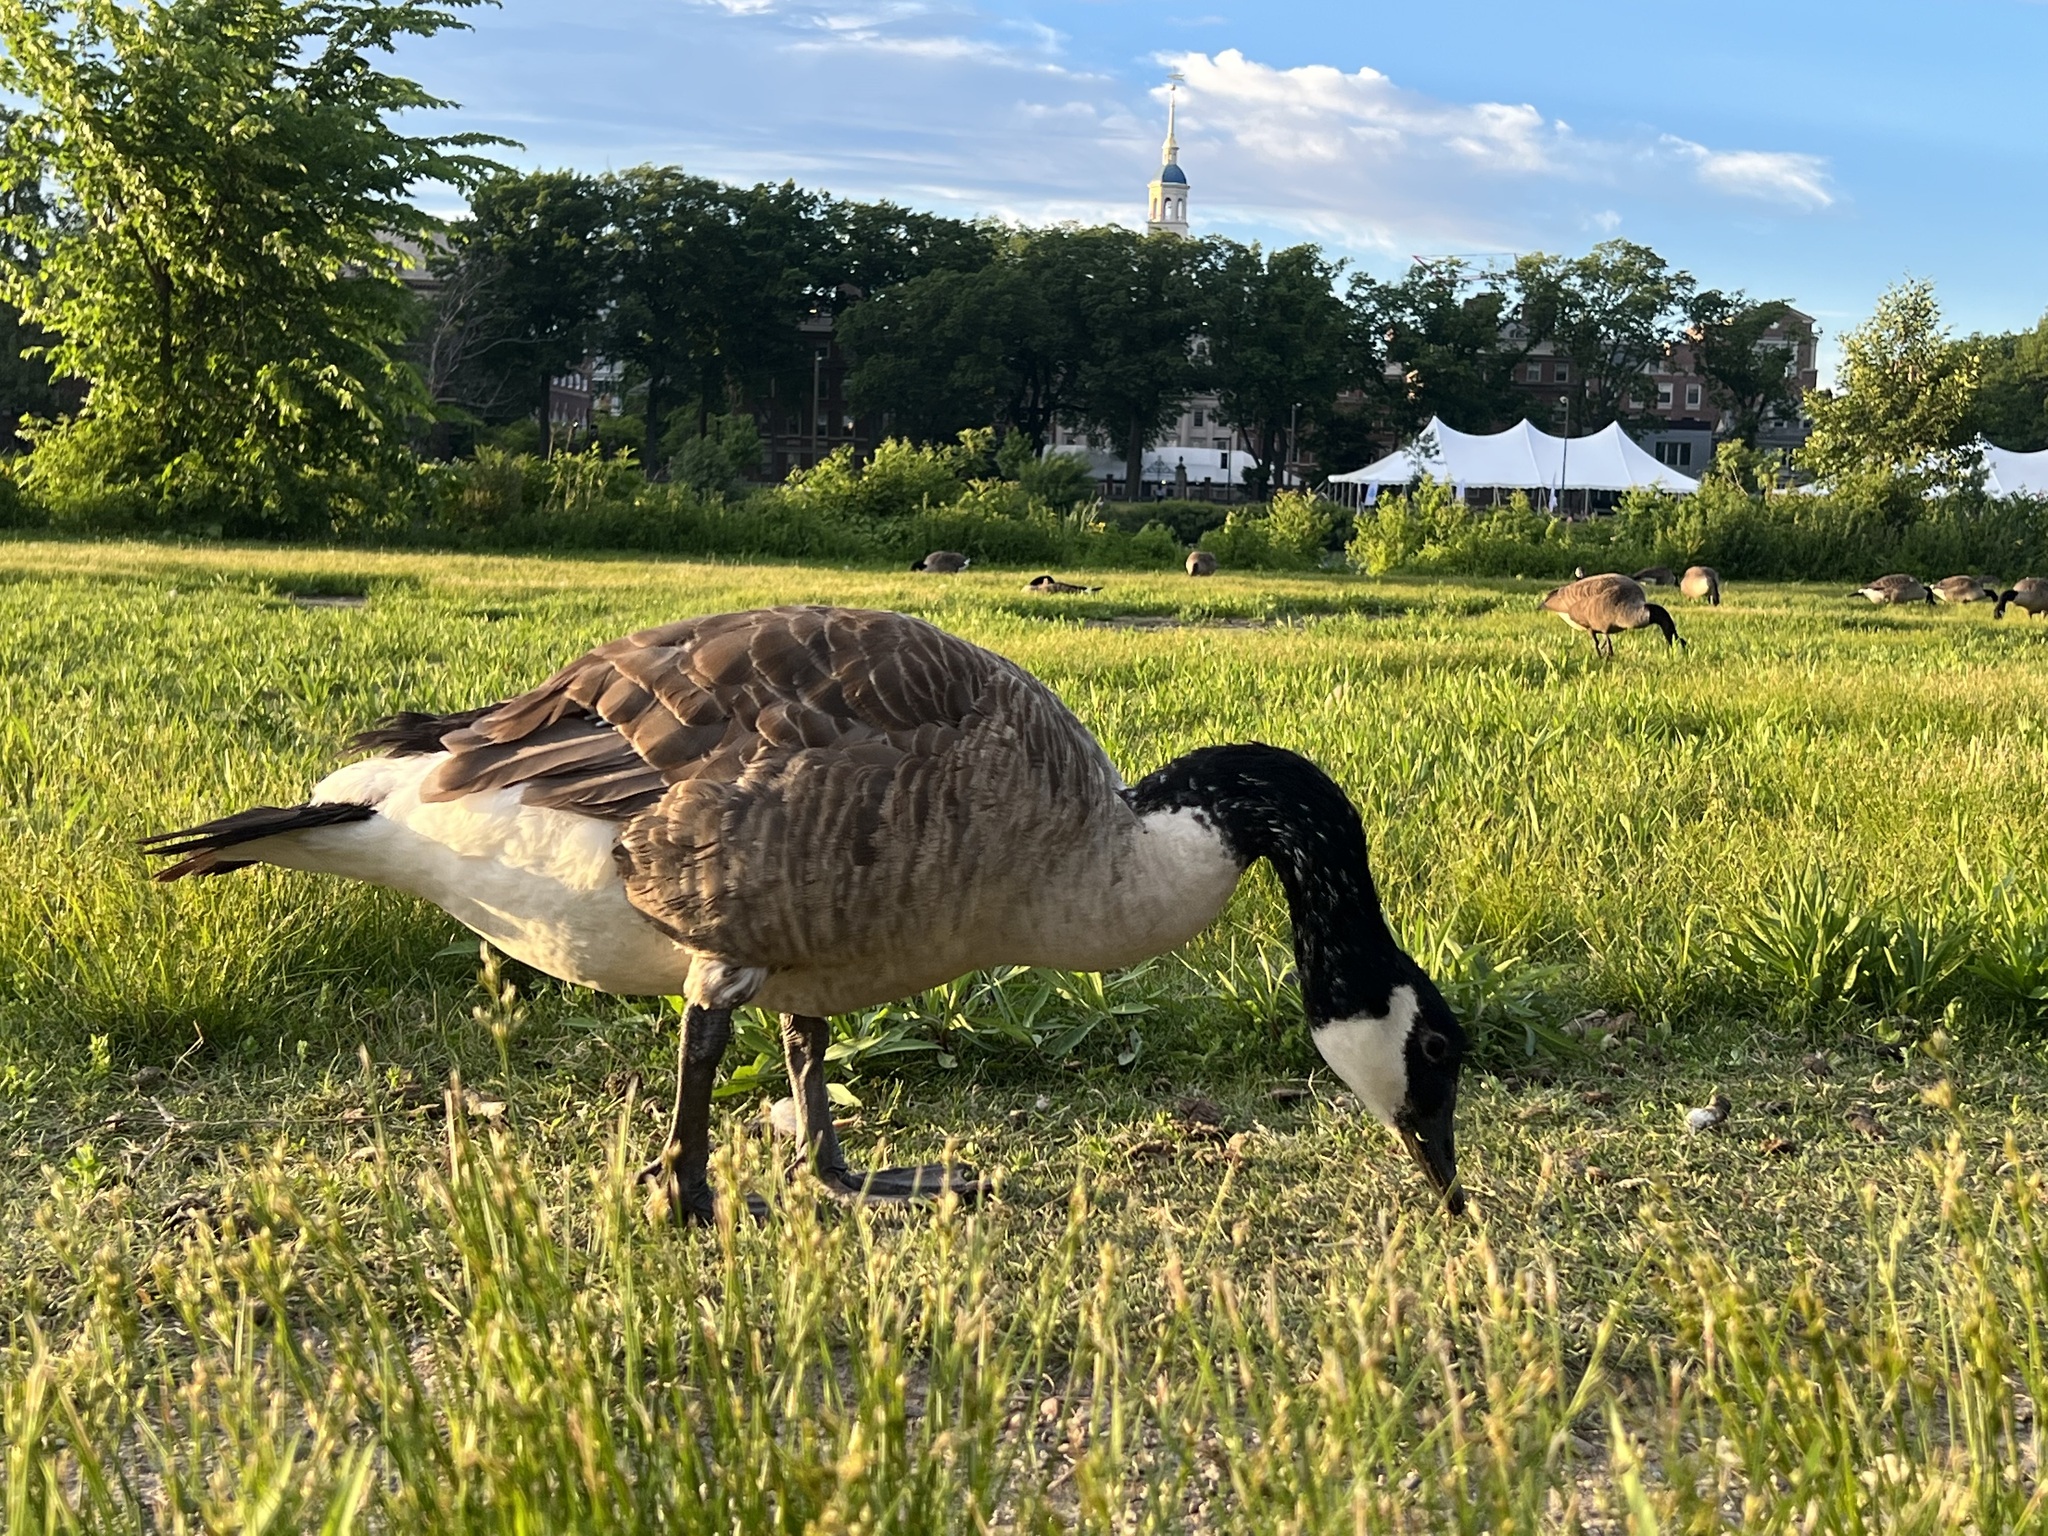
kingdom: Animalia
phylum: Chordata
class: Aves
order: Anseriformes
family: Anatidae
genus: Branta
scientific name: Branta canadensis
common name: Canada goose
